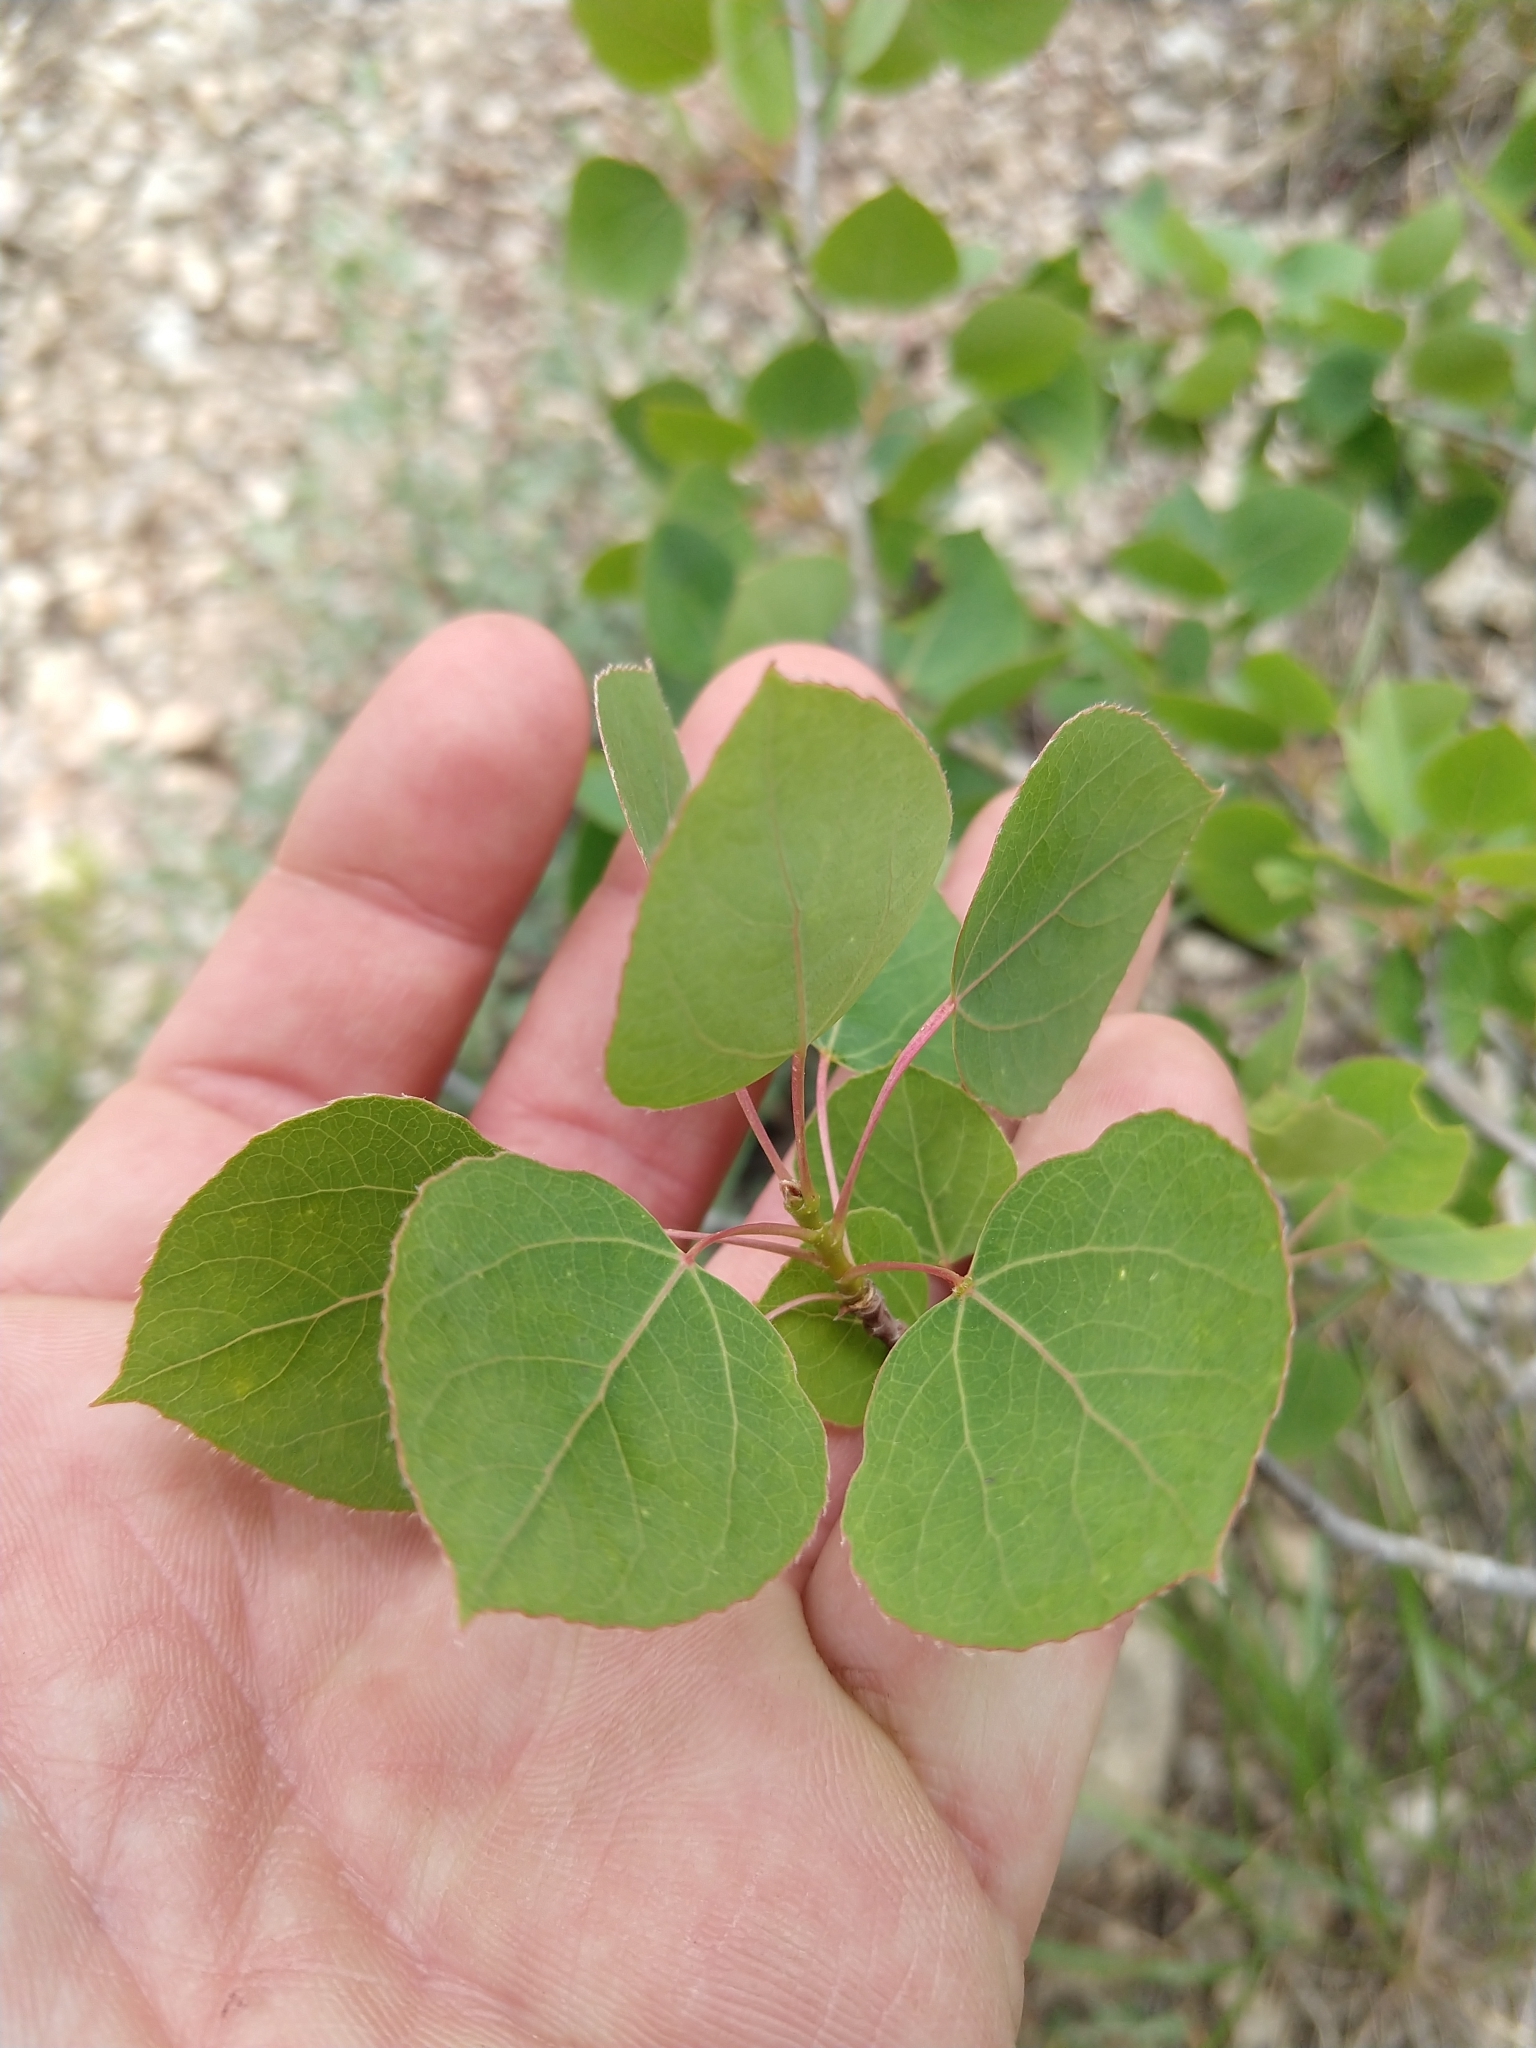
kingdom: Plantae
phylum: Tracheophyta
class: Magnoliopsida
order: Malpighiales
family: Salicaceae
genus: Populus
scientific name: Populus tremuloides
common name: Quaking aspen
